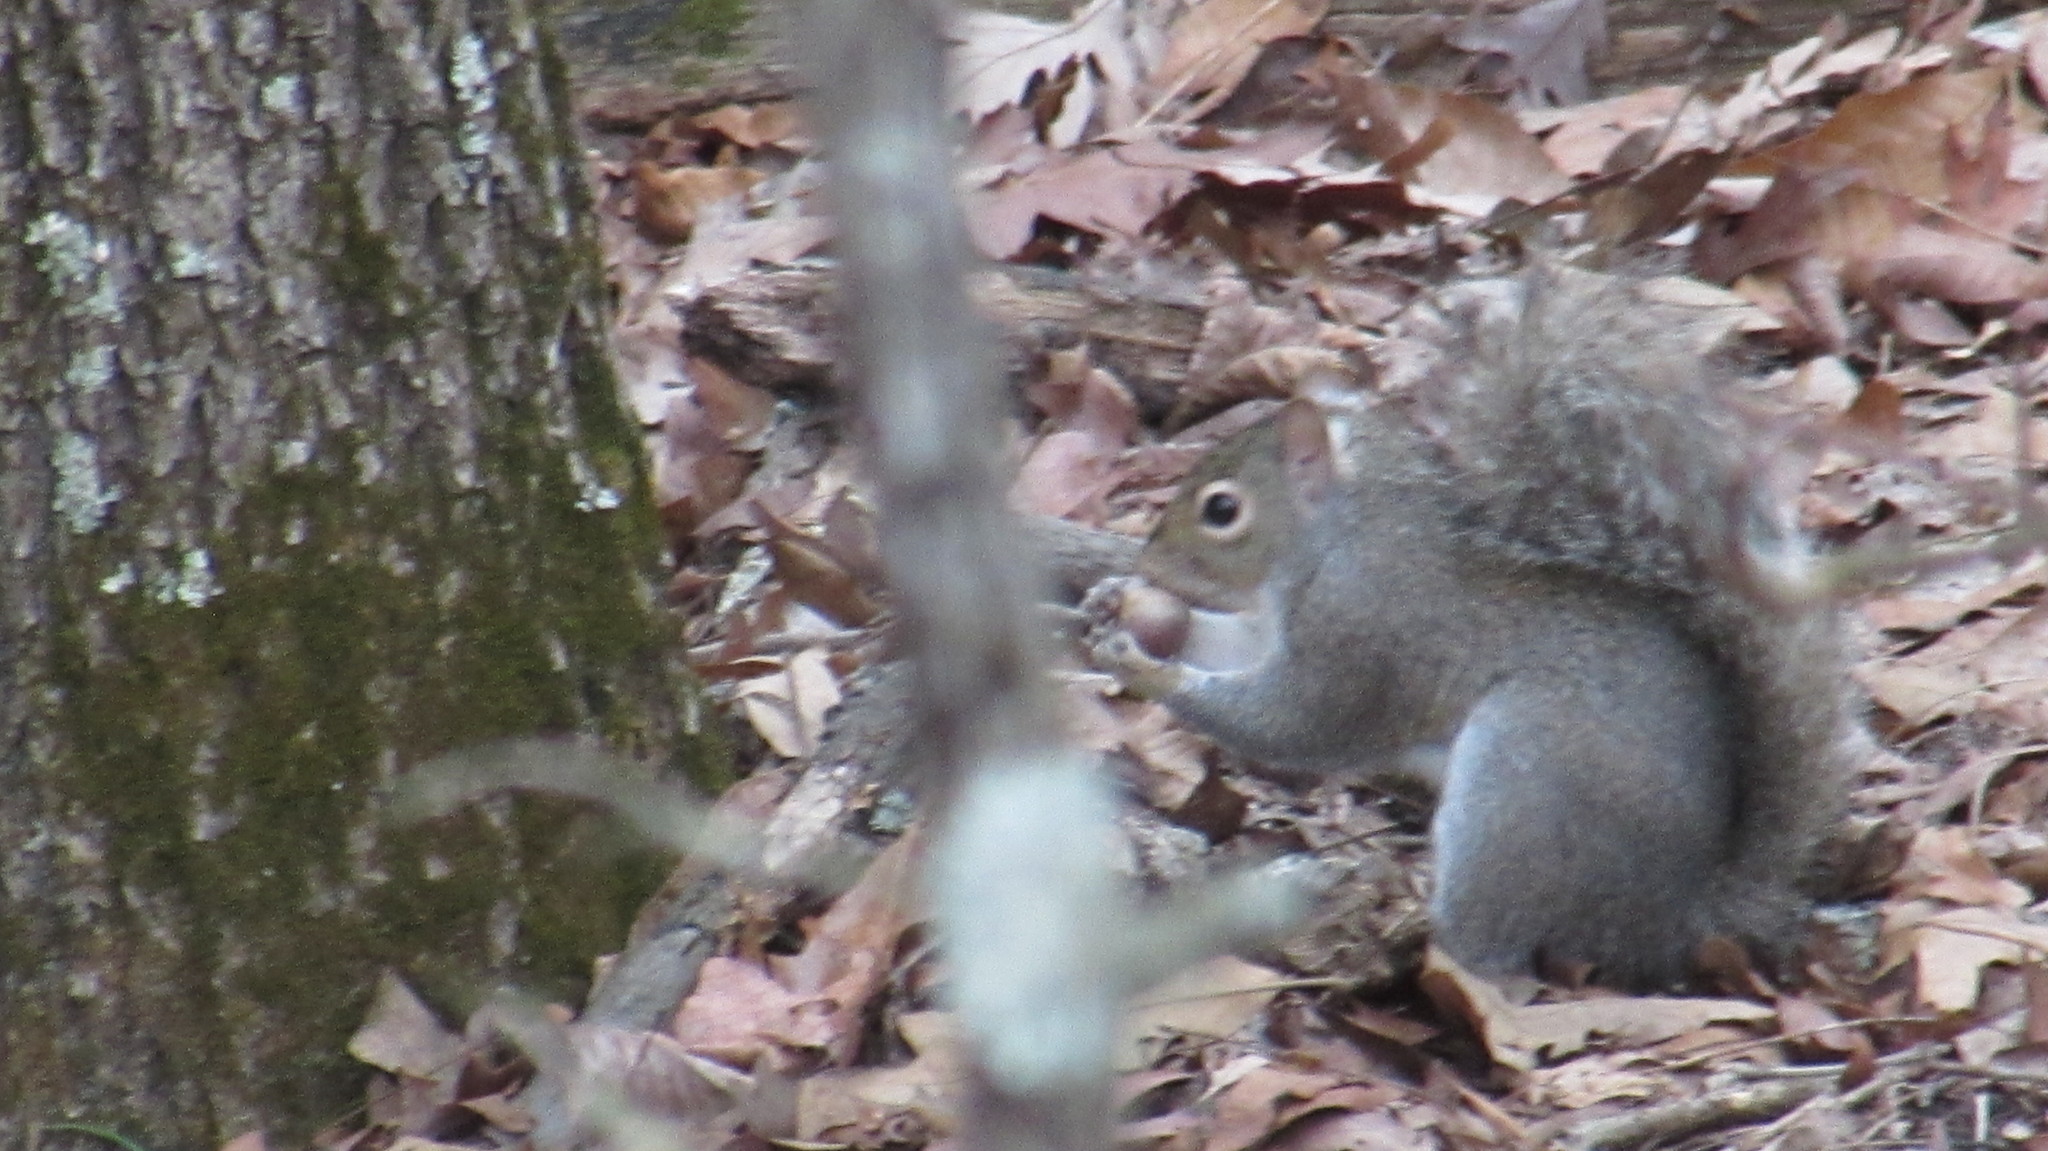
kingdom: Animalia
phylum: Chordata
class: Mammalia
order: Rodentia
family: Sciuridae
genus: Sciurus
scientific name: Sciurus carolinensis
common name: Eastern gray squirrel
